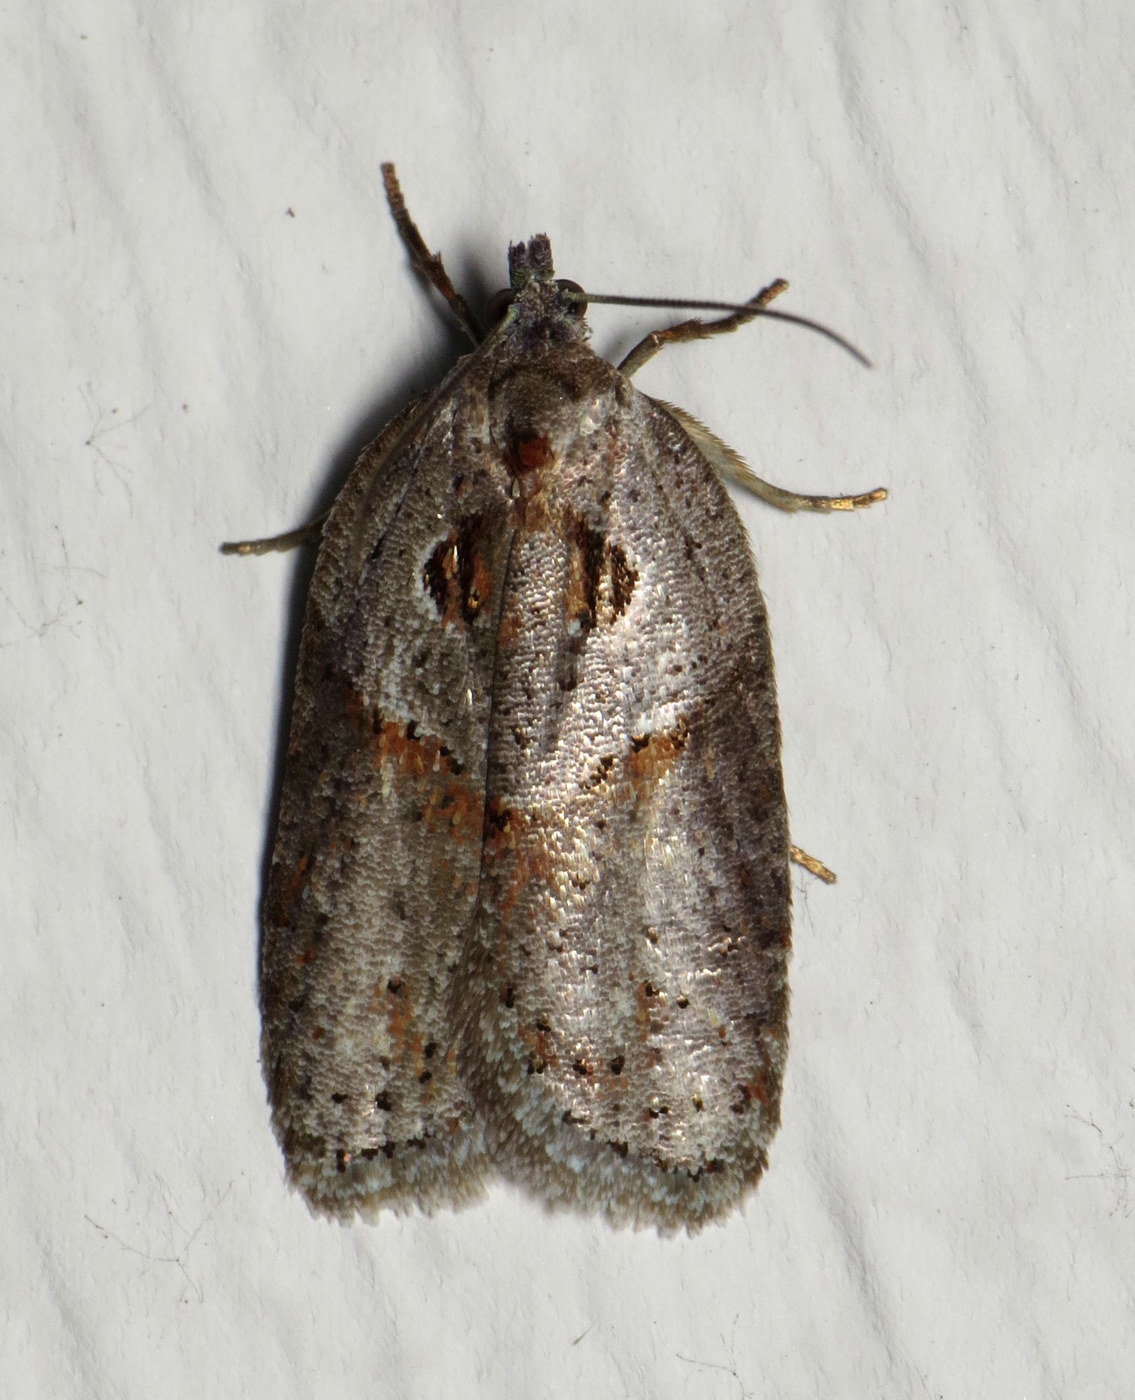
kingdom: Animalia
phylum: Arthropoda
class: Insecta
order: Lepidoptera
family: Tortricidae
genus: Acleris
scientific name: Acleris maculidorsana
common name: Stained-back leafroller moth
